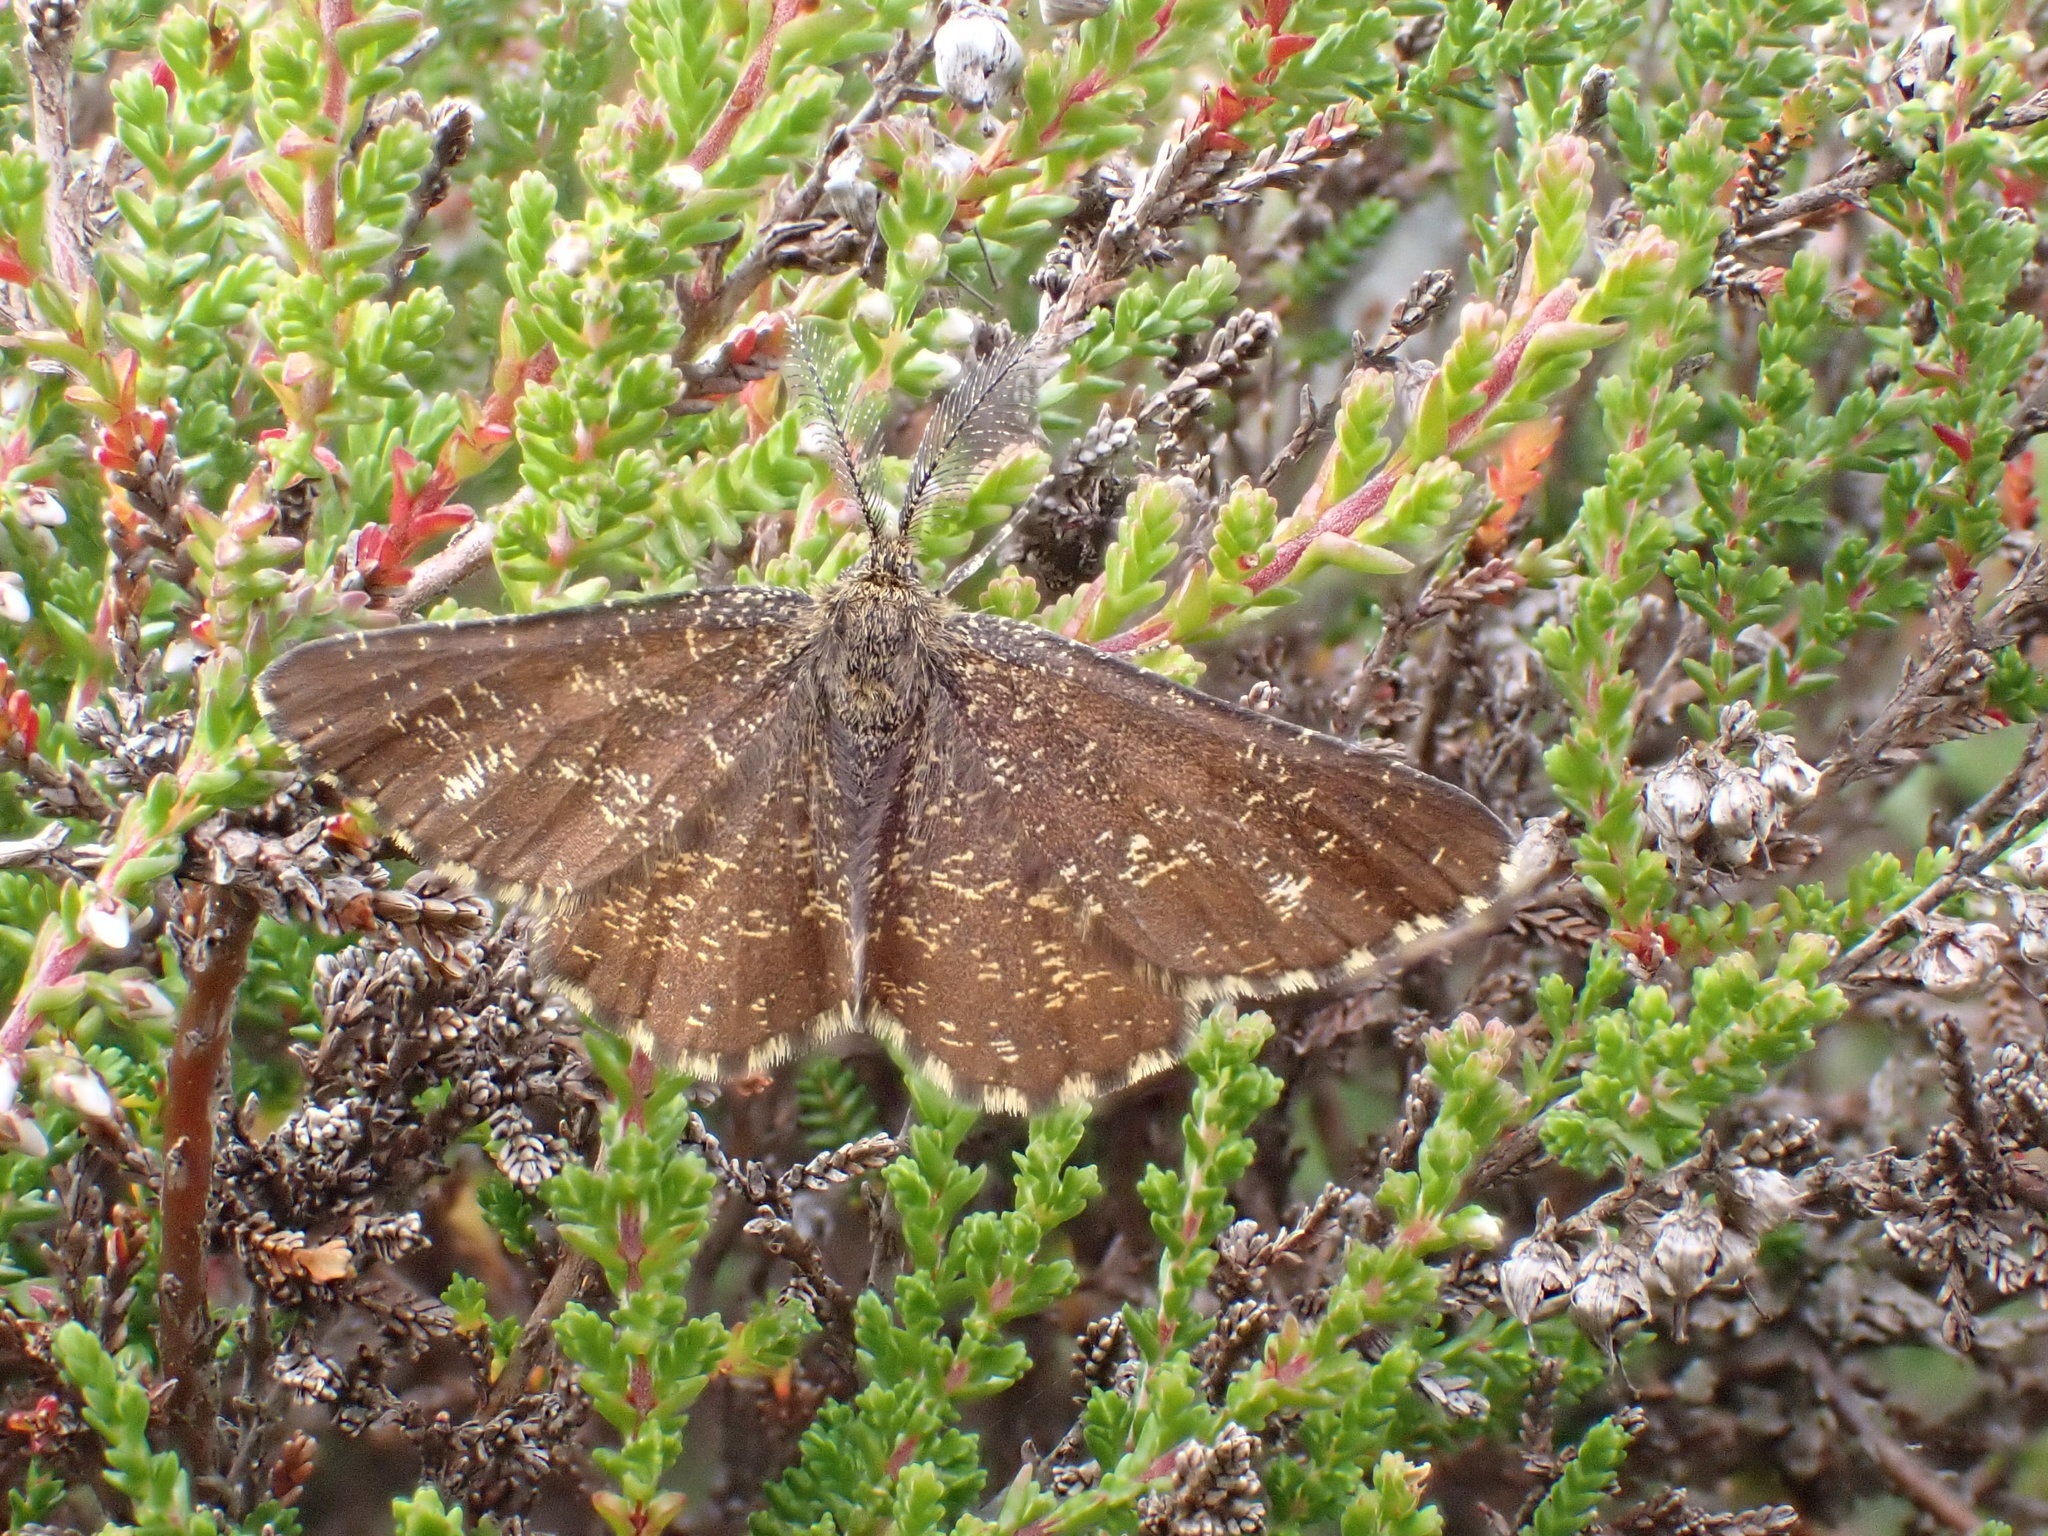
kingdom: Animalia
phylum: Arthropoda
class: Insecta
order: Lepidoptera
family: Geometridae
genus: Ematurga
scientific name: Ematurga atomaria
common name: Common heath
